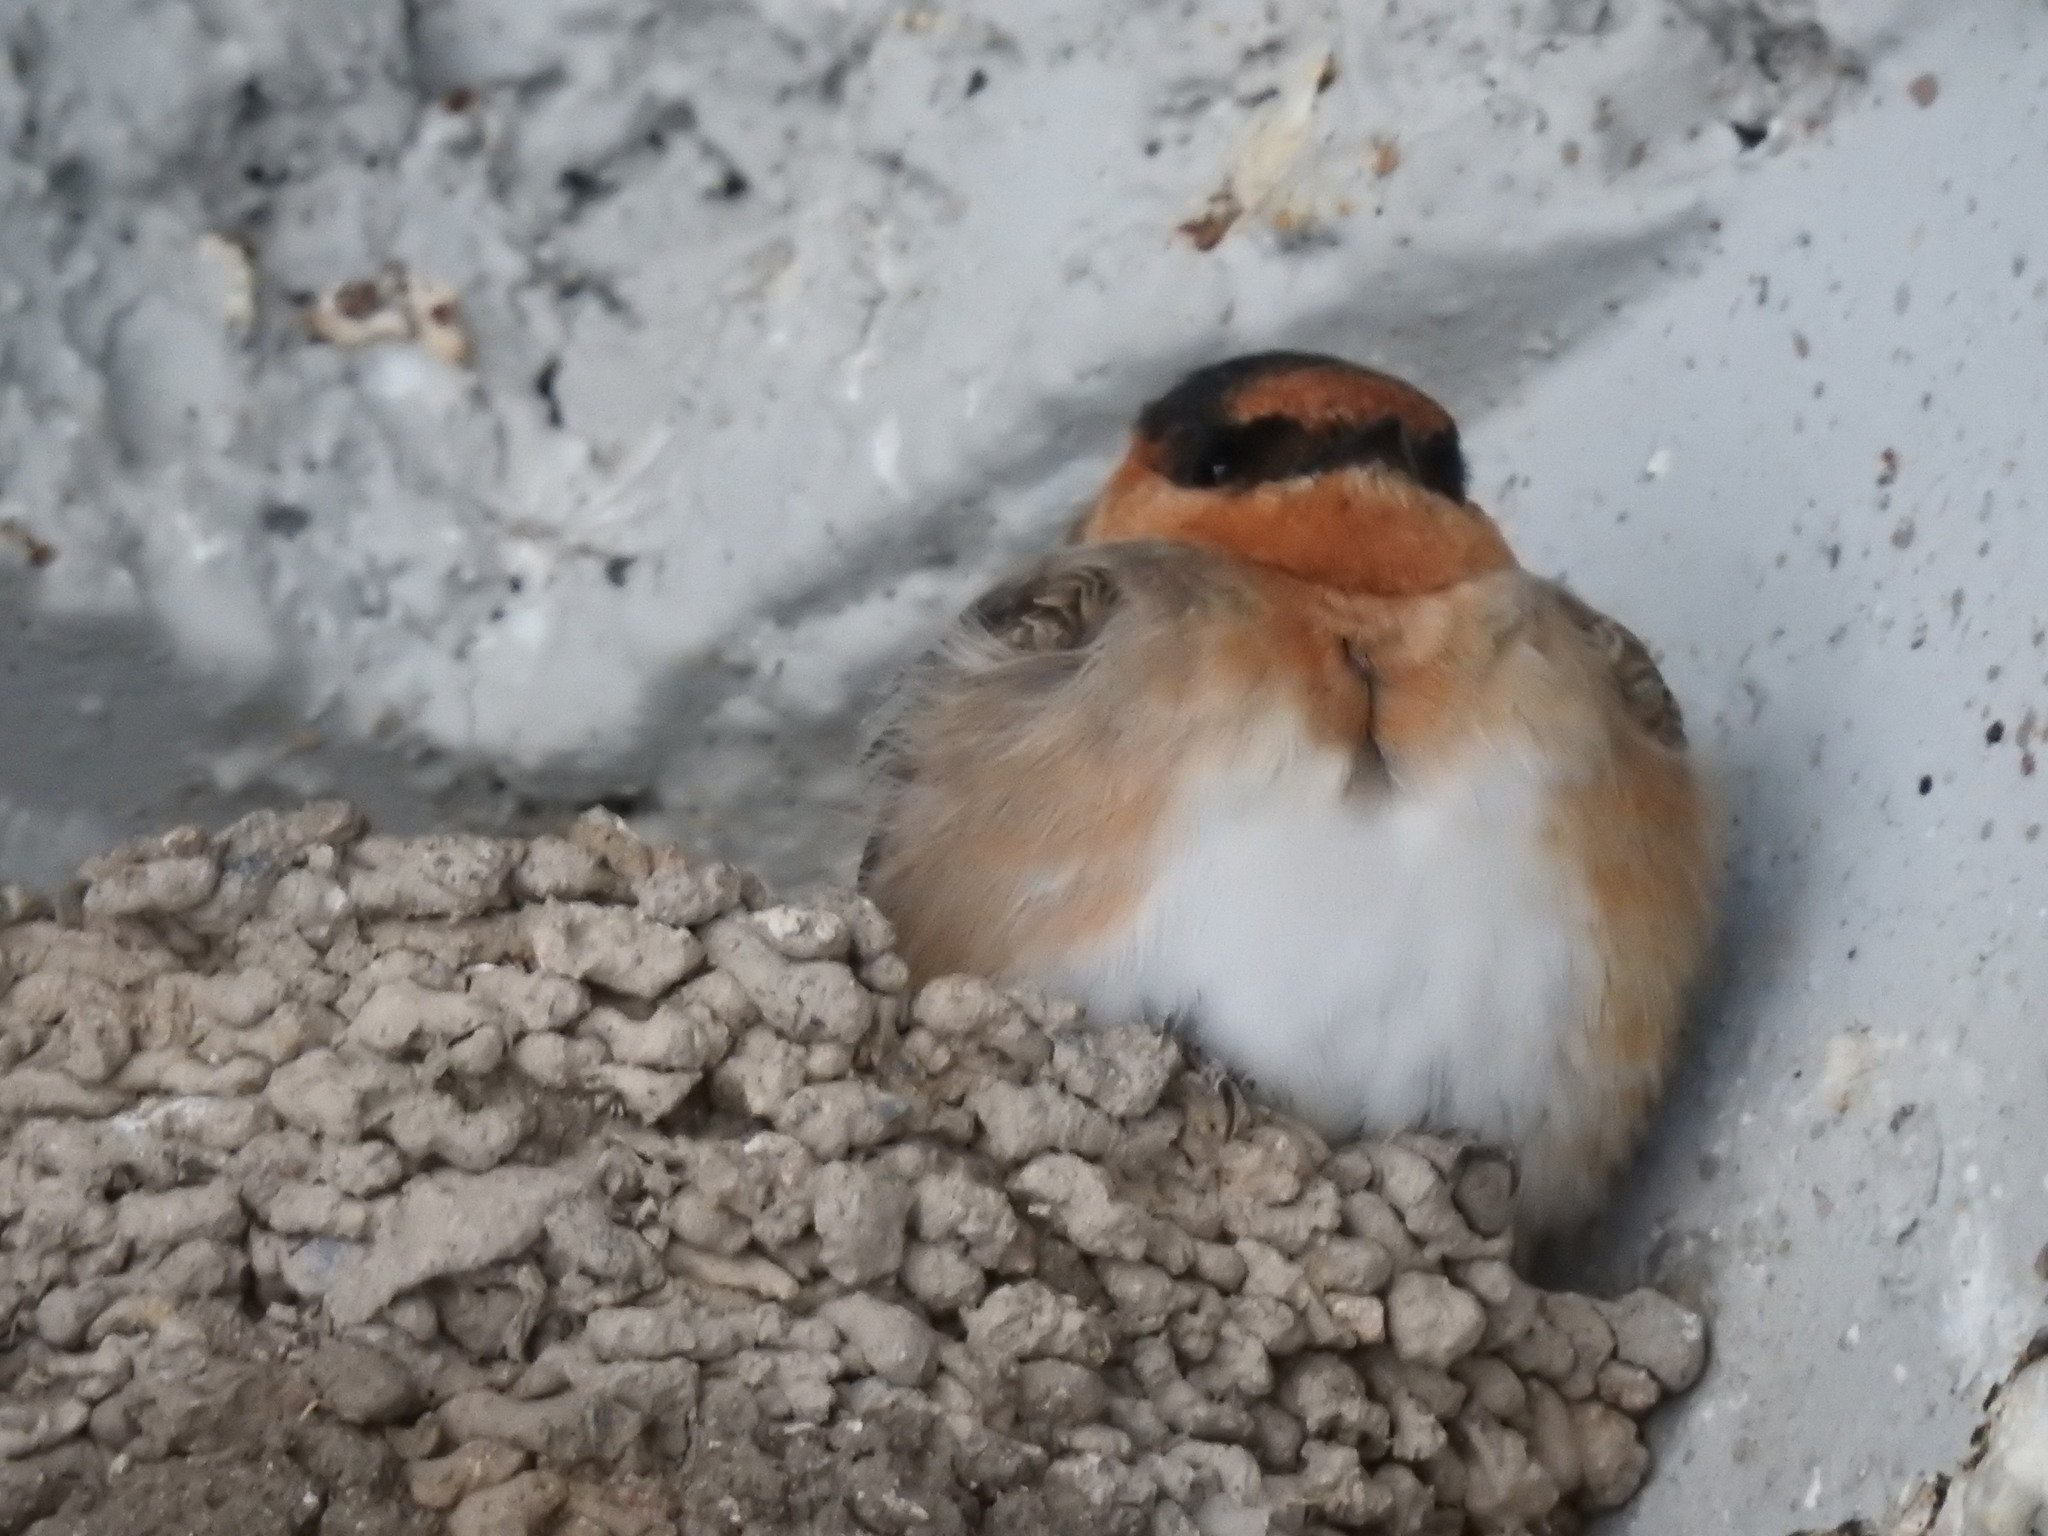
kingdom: Animalia
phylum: Chordata
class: Aves
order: Passeriformes
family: Hirundinidae
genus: Petrochelidon
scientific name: Petrochelidon fulva
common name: Cave swallow
